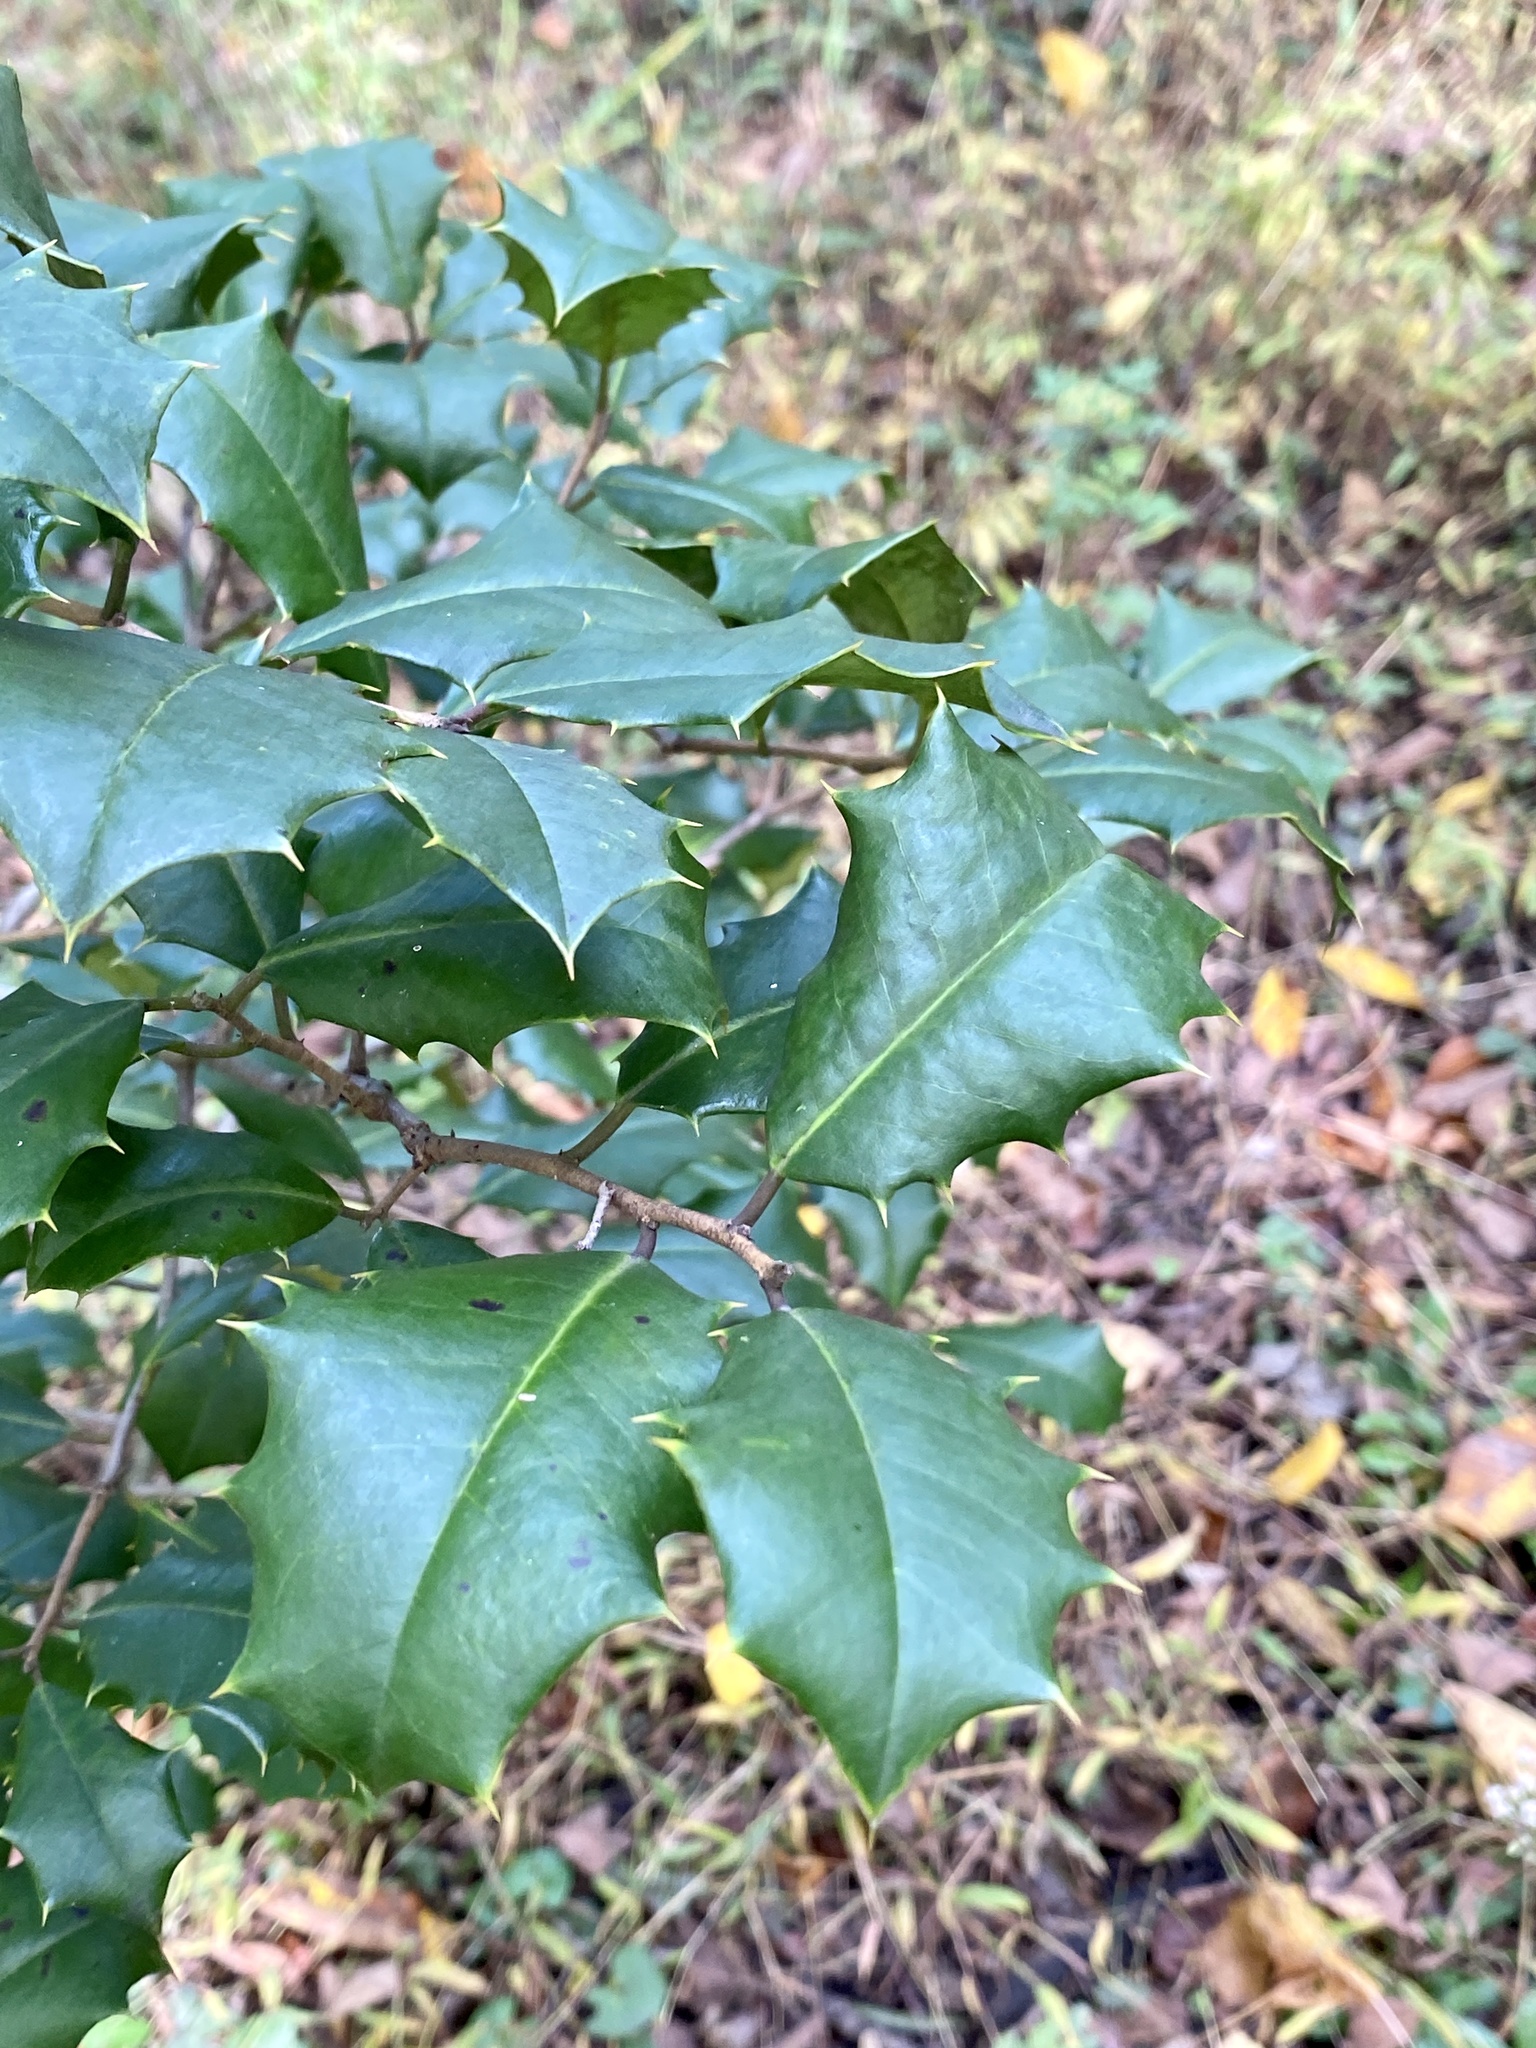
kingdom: Plantae
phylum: Tracheophyta
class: Magnoliopsida
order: Aquifoliales
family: Aquifoliaceae
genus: Ilex
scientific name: Ilex opaca
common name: American holly
